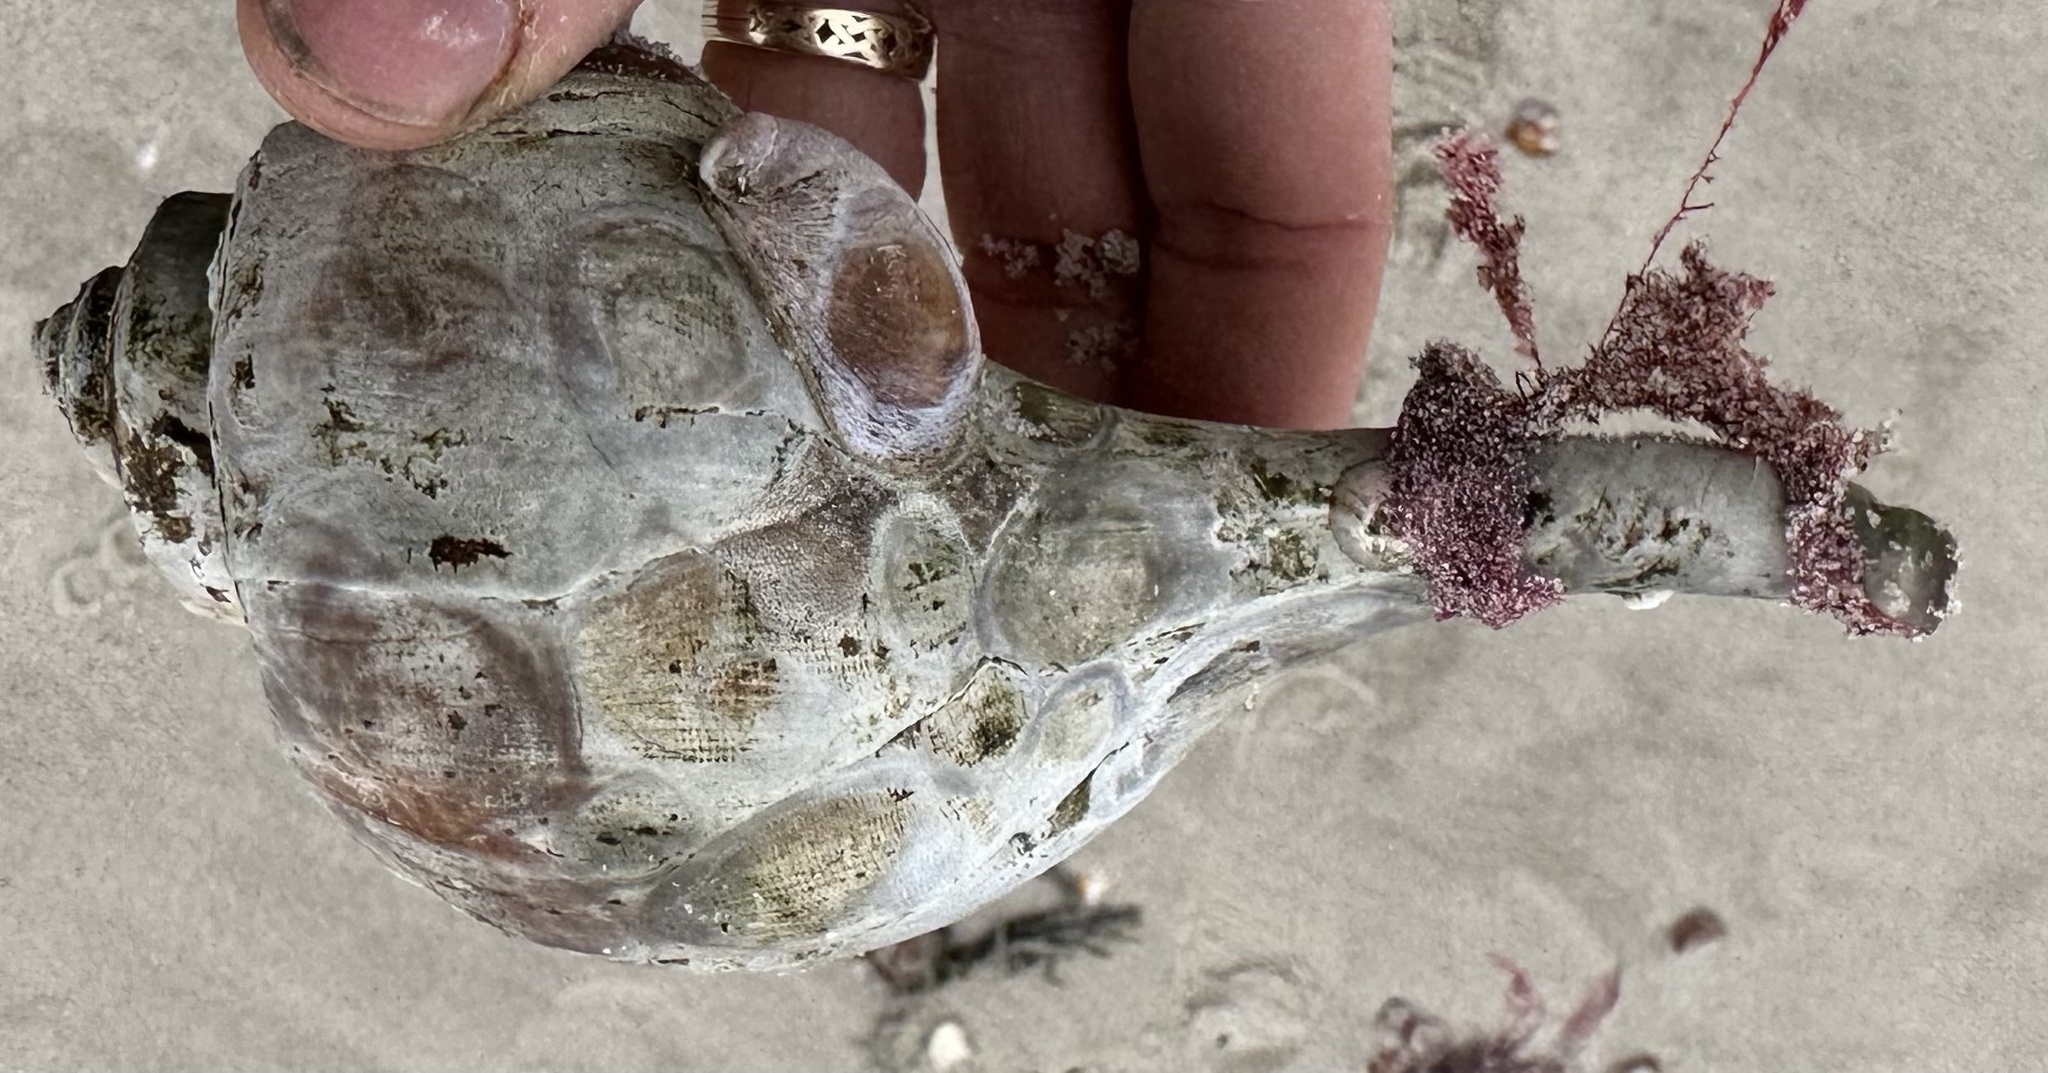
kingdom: Animalia
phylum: Mollusca
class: Gastropoda
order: Neogastropoda
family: Busyconidae
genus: Busycotypus
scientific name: Busycotypus canaliculatus
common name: Channeled whelk
